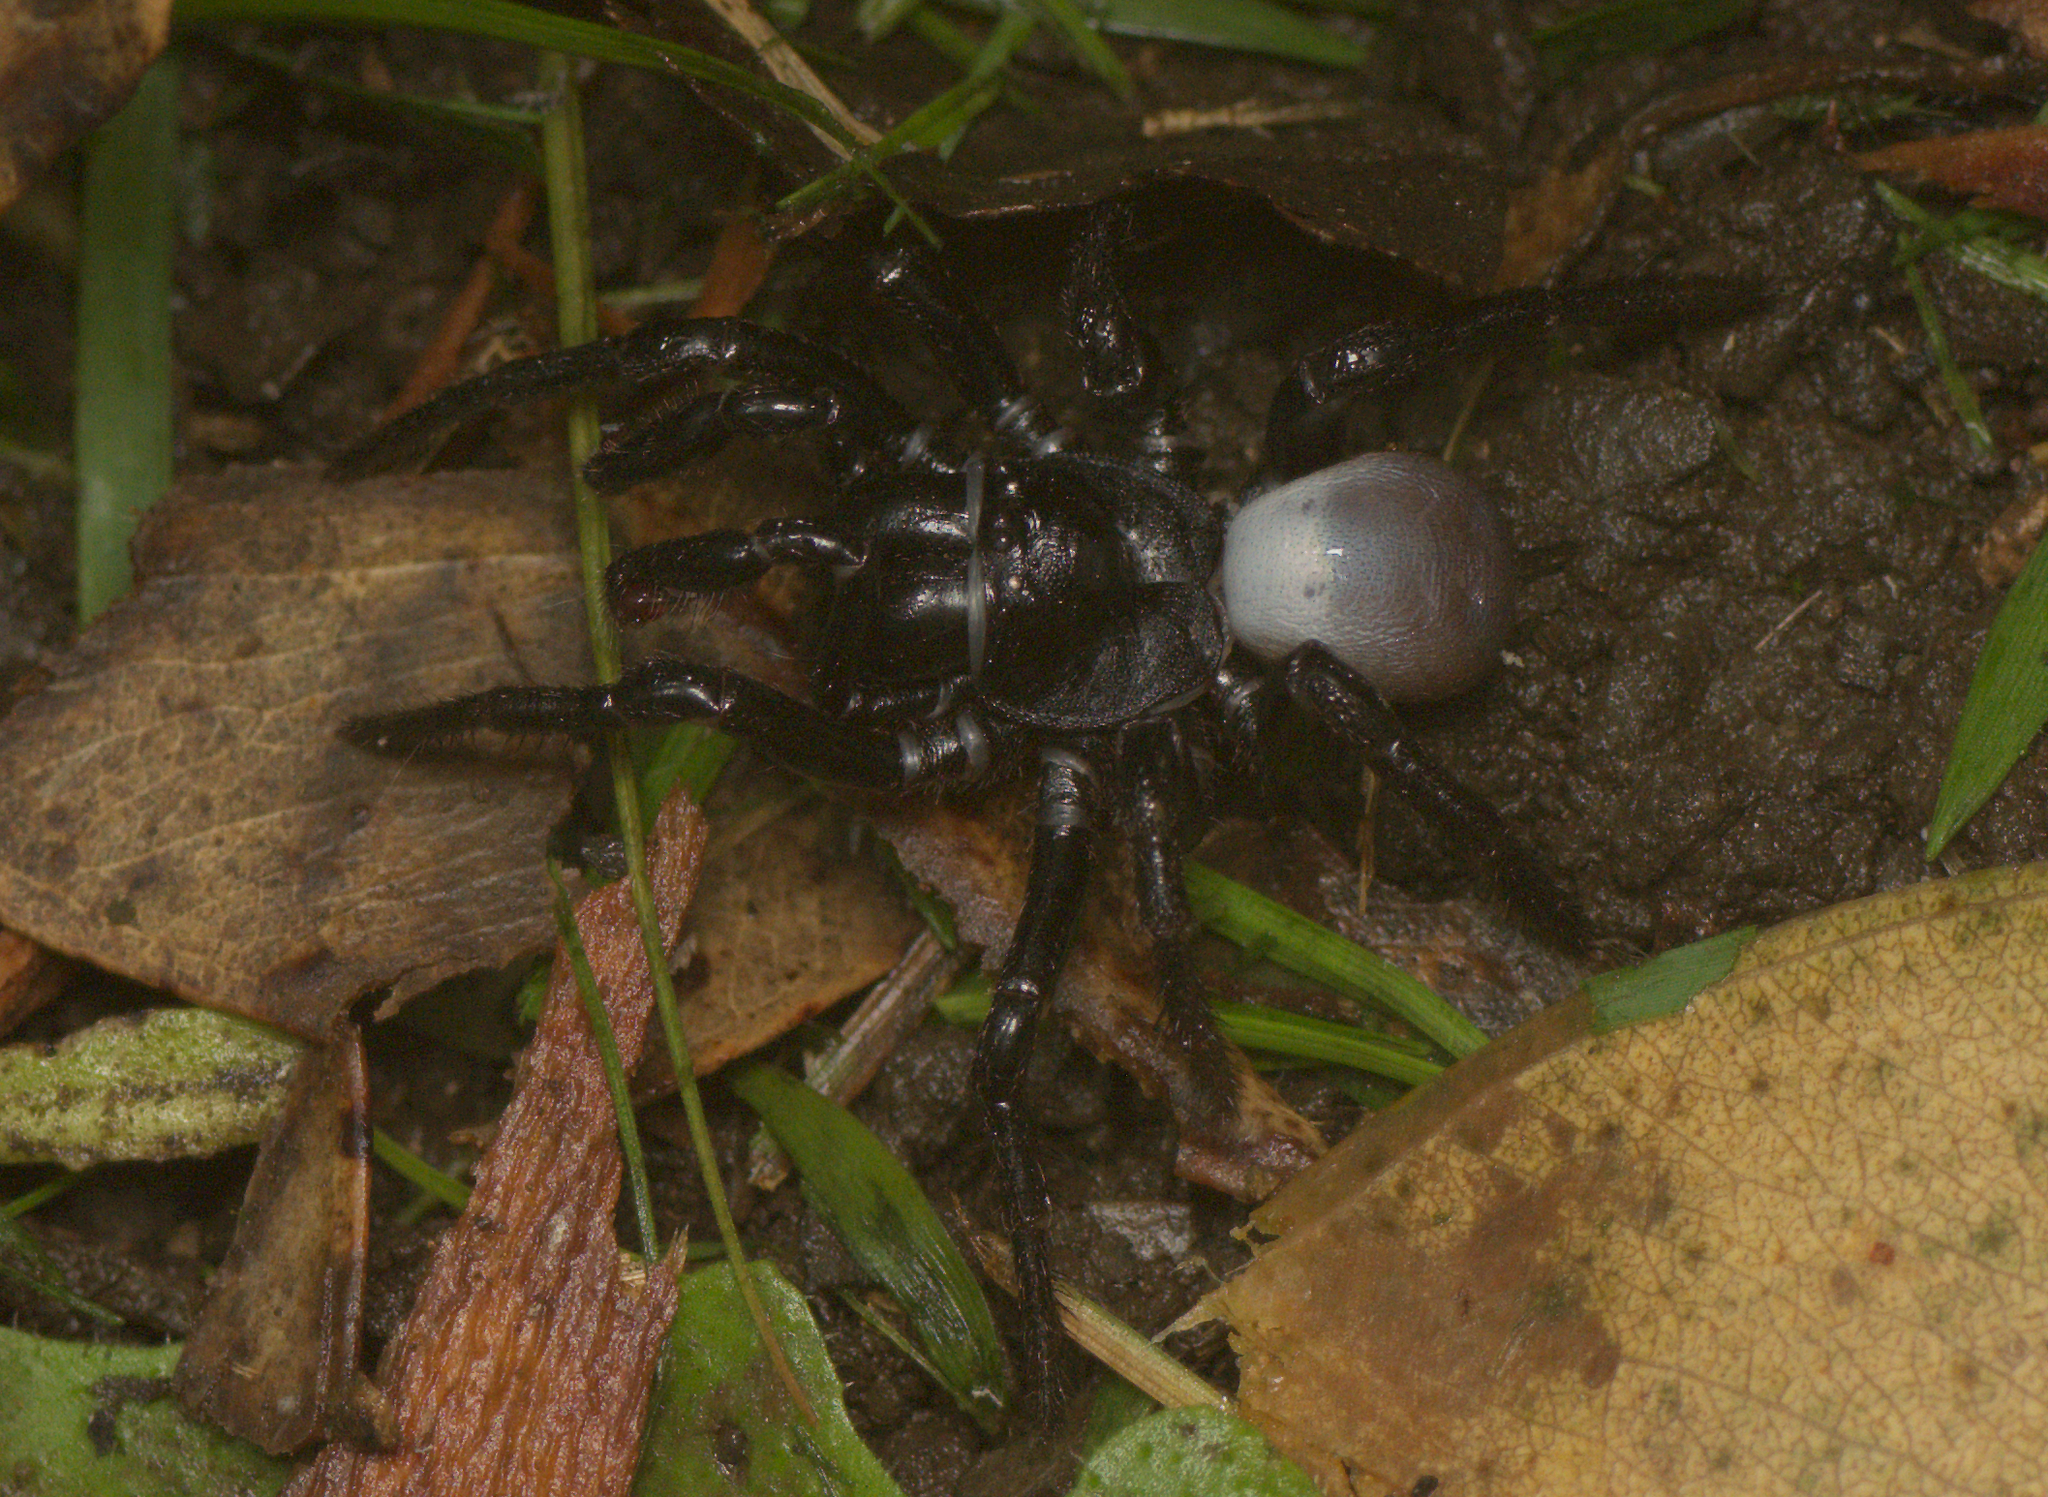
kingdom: Animalia
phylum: Arthropoda
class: Arachnida
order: Araneae
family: Actinopodidae
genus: Missulena
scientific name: Missulena bradleyi
